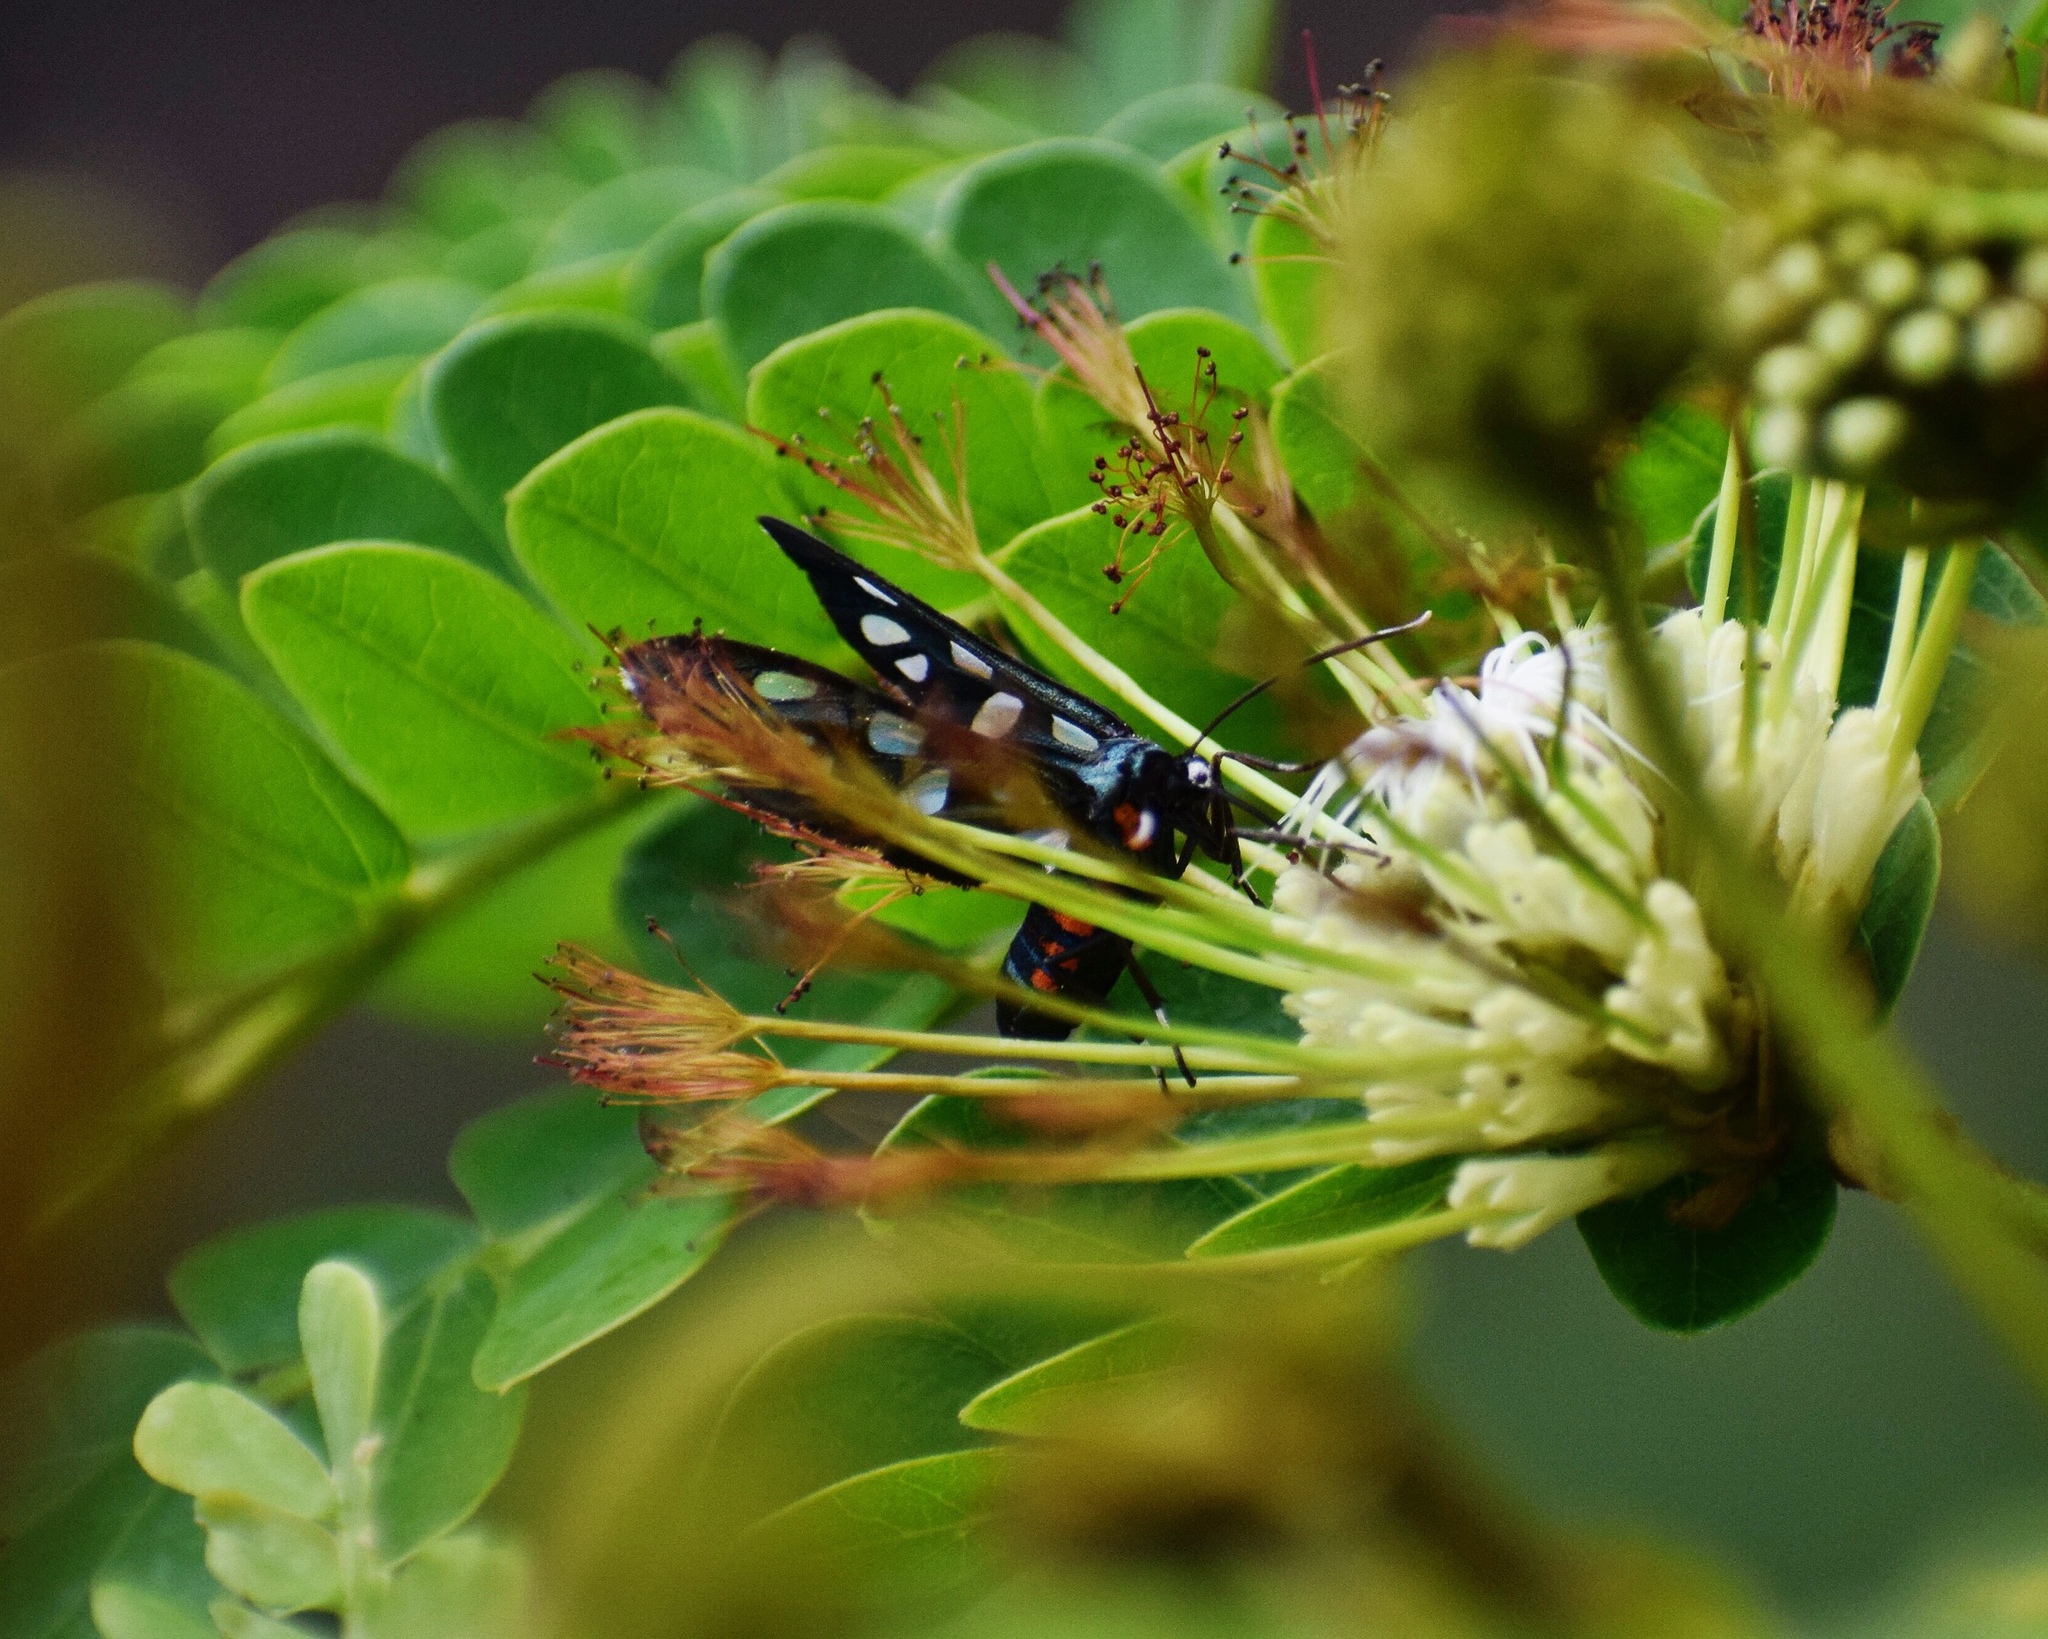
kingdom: Animalia
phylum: Arthropoda
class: Insecta
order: Lepidoptera
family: Erebidae
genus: Amata
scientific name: Amata kuhlweini
